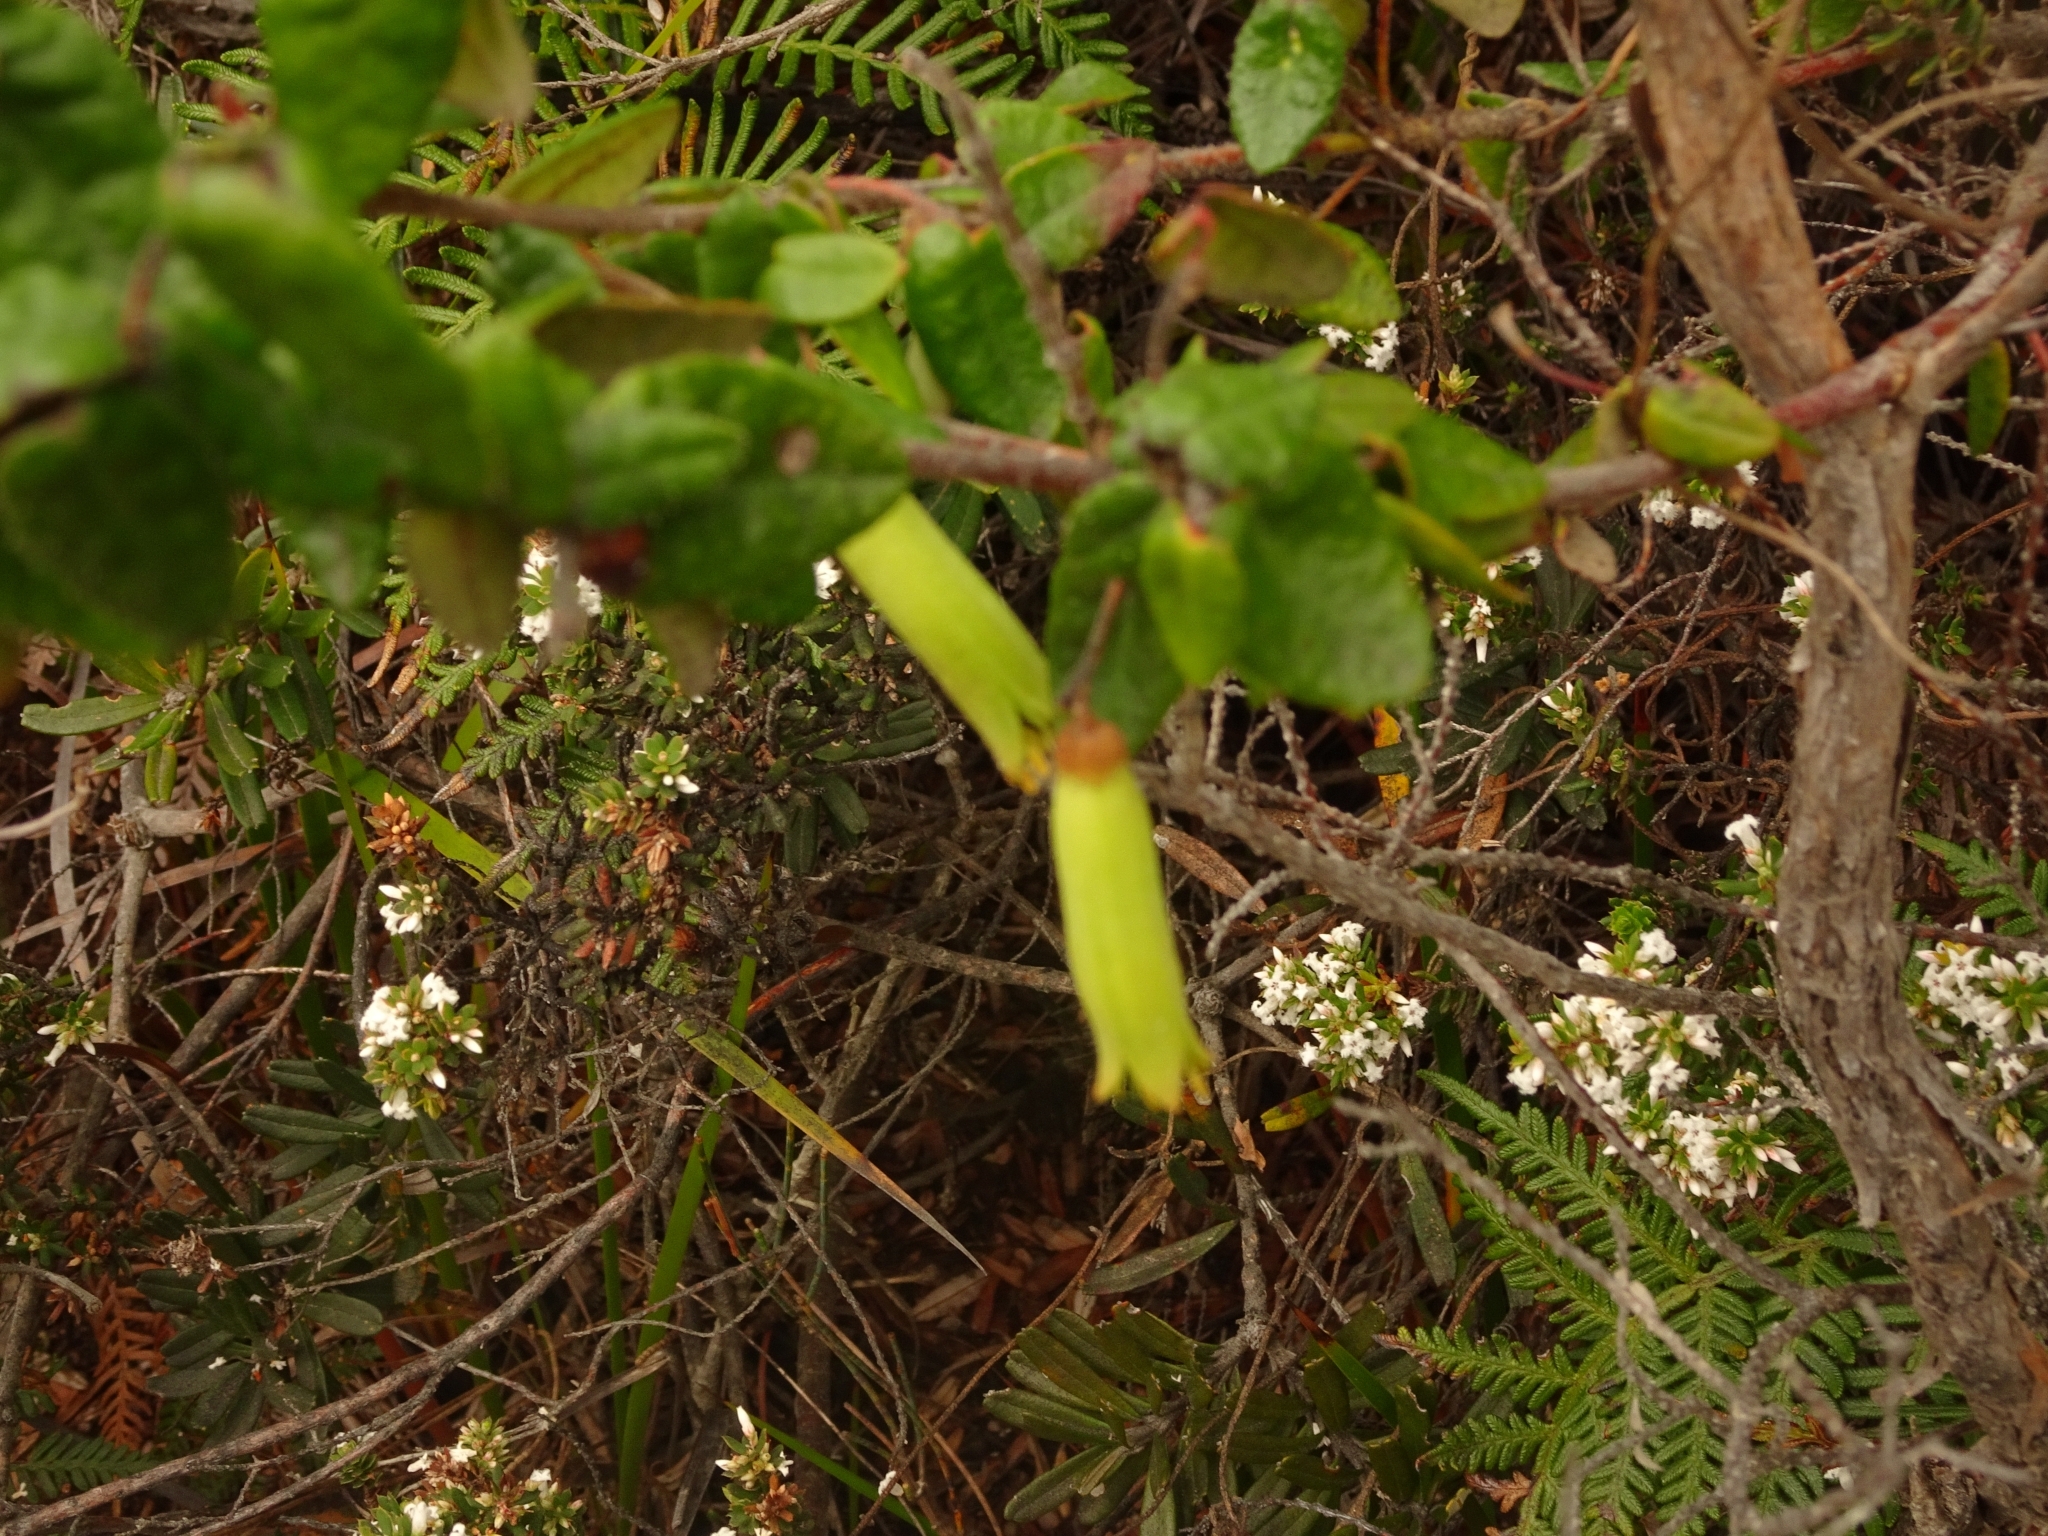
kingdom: Plantae
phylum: Tracheophyta
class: Magnoliopsida
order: Sapindales
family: Rutaceae
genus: Correa
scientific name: Correa reflexa
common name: Common correa
